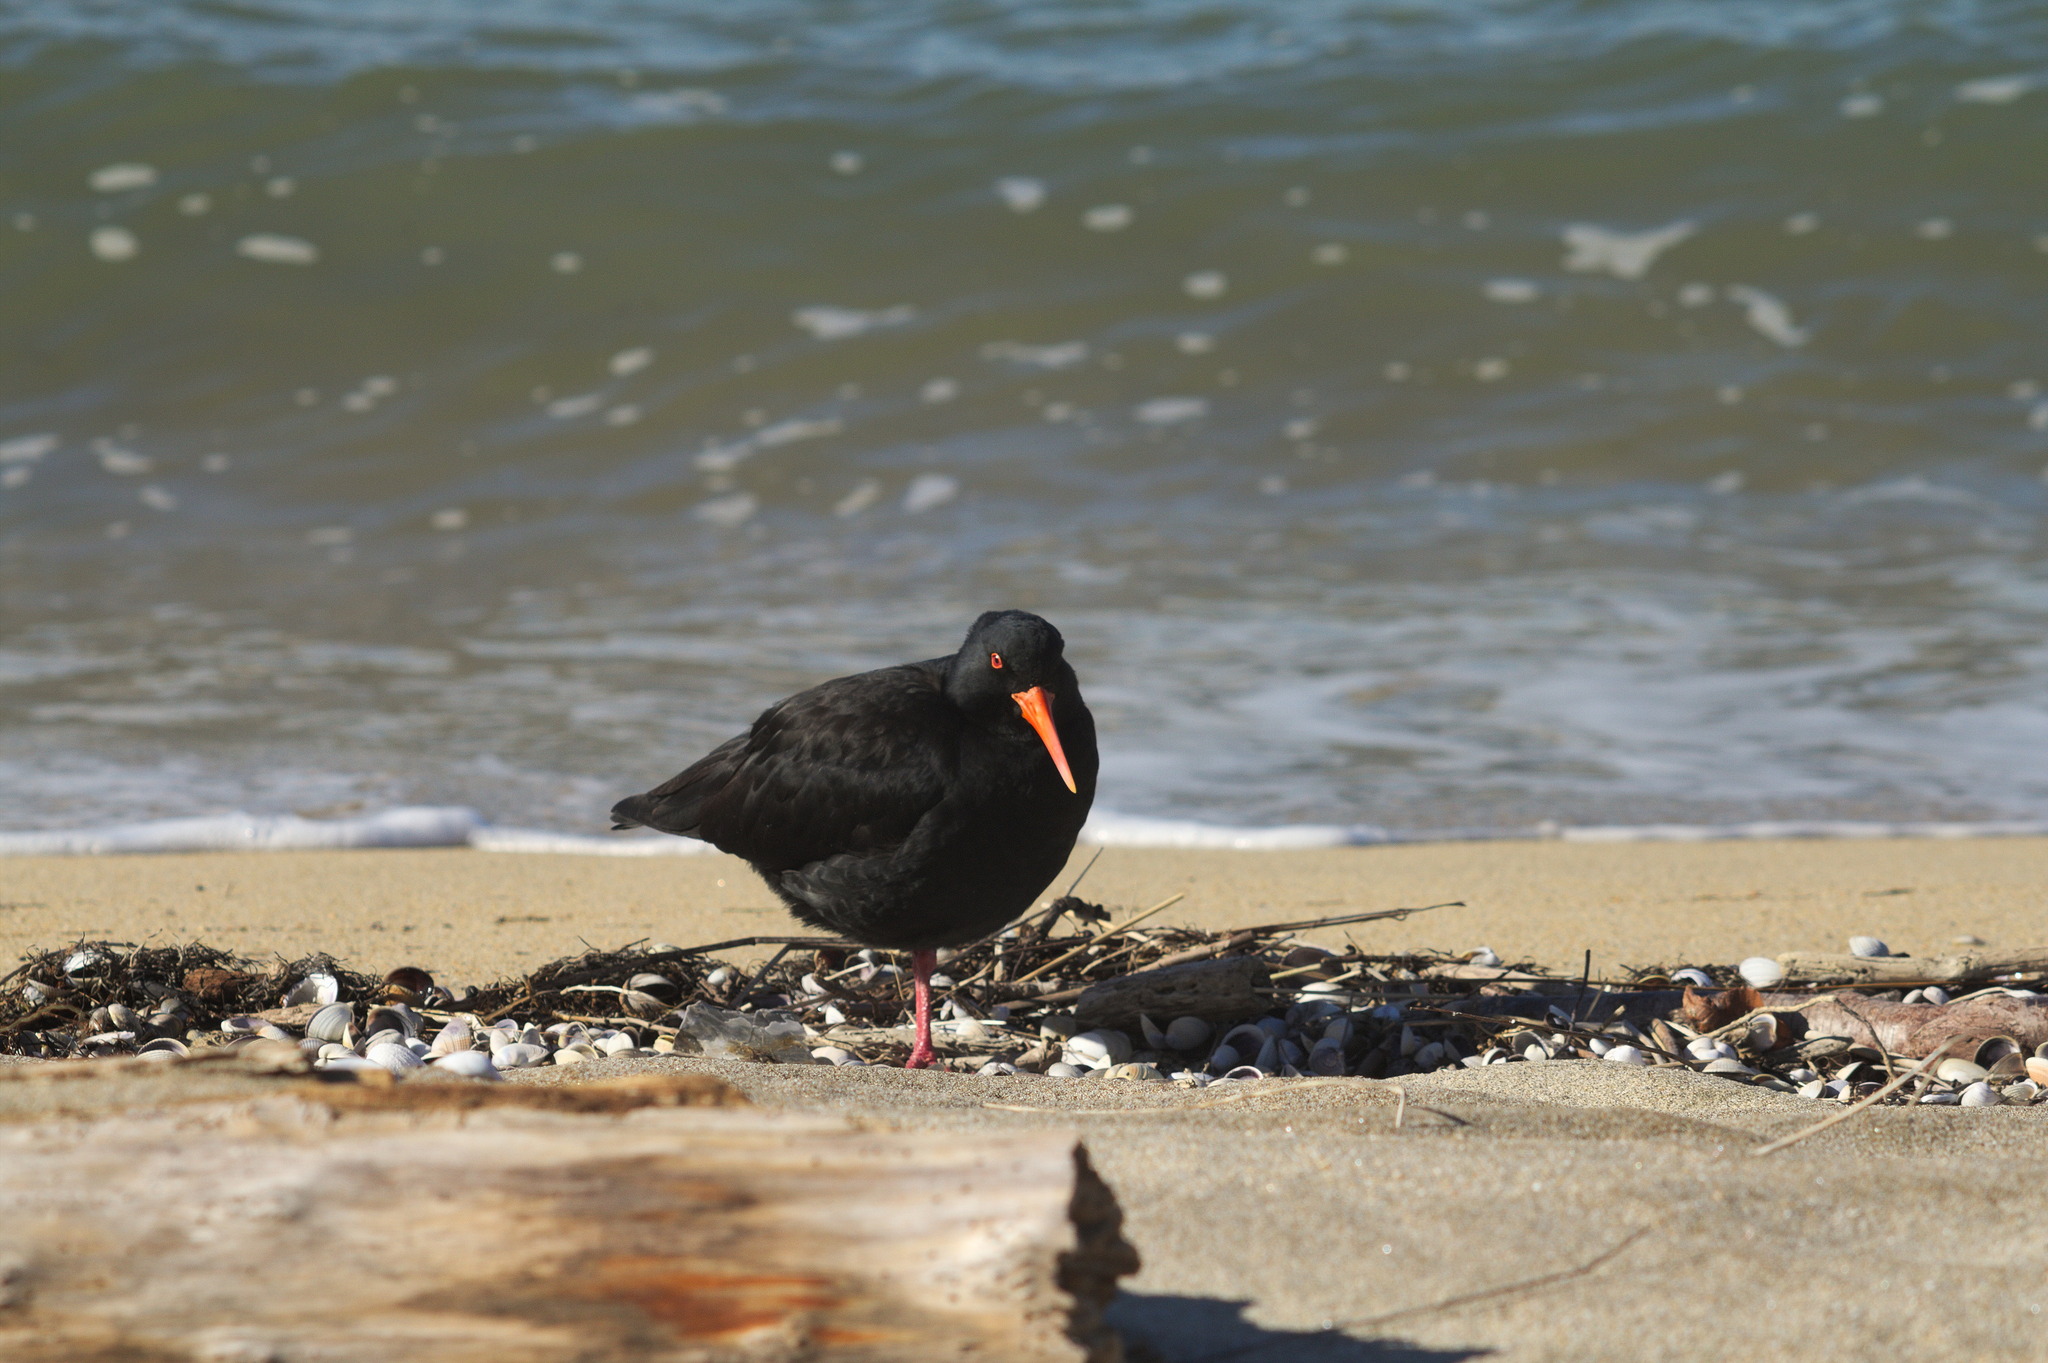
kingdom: Animalia
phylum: Chordata
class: Aves
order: Charadriiformes
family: Haematopodidae
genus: Haematopus
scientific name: Haematopus unicolor
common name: Variable oystercatcher
